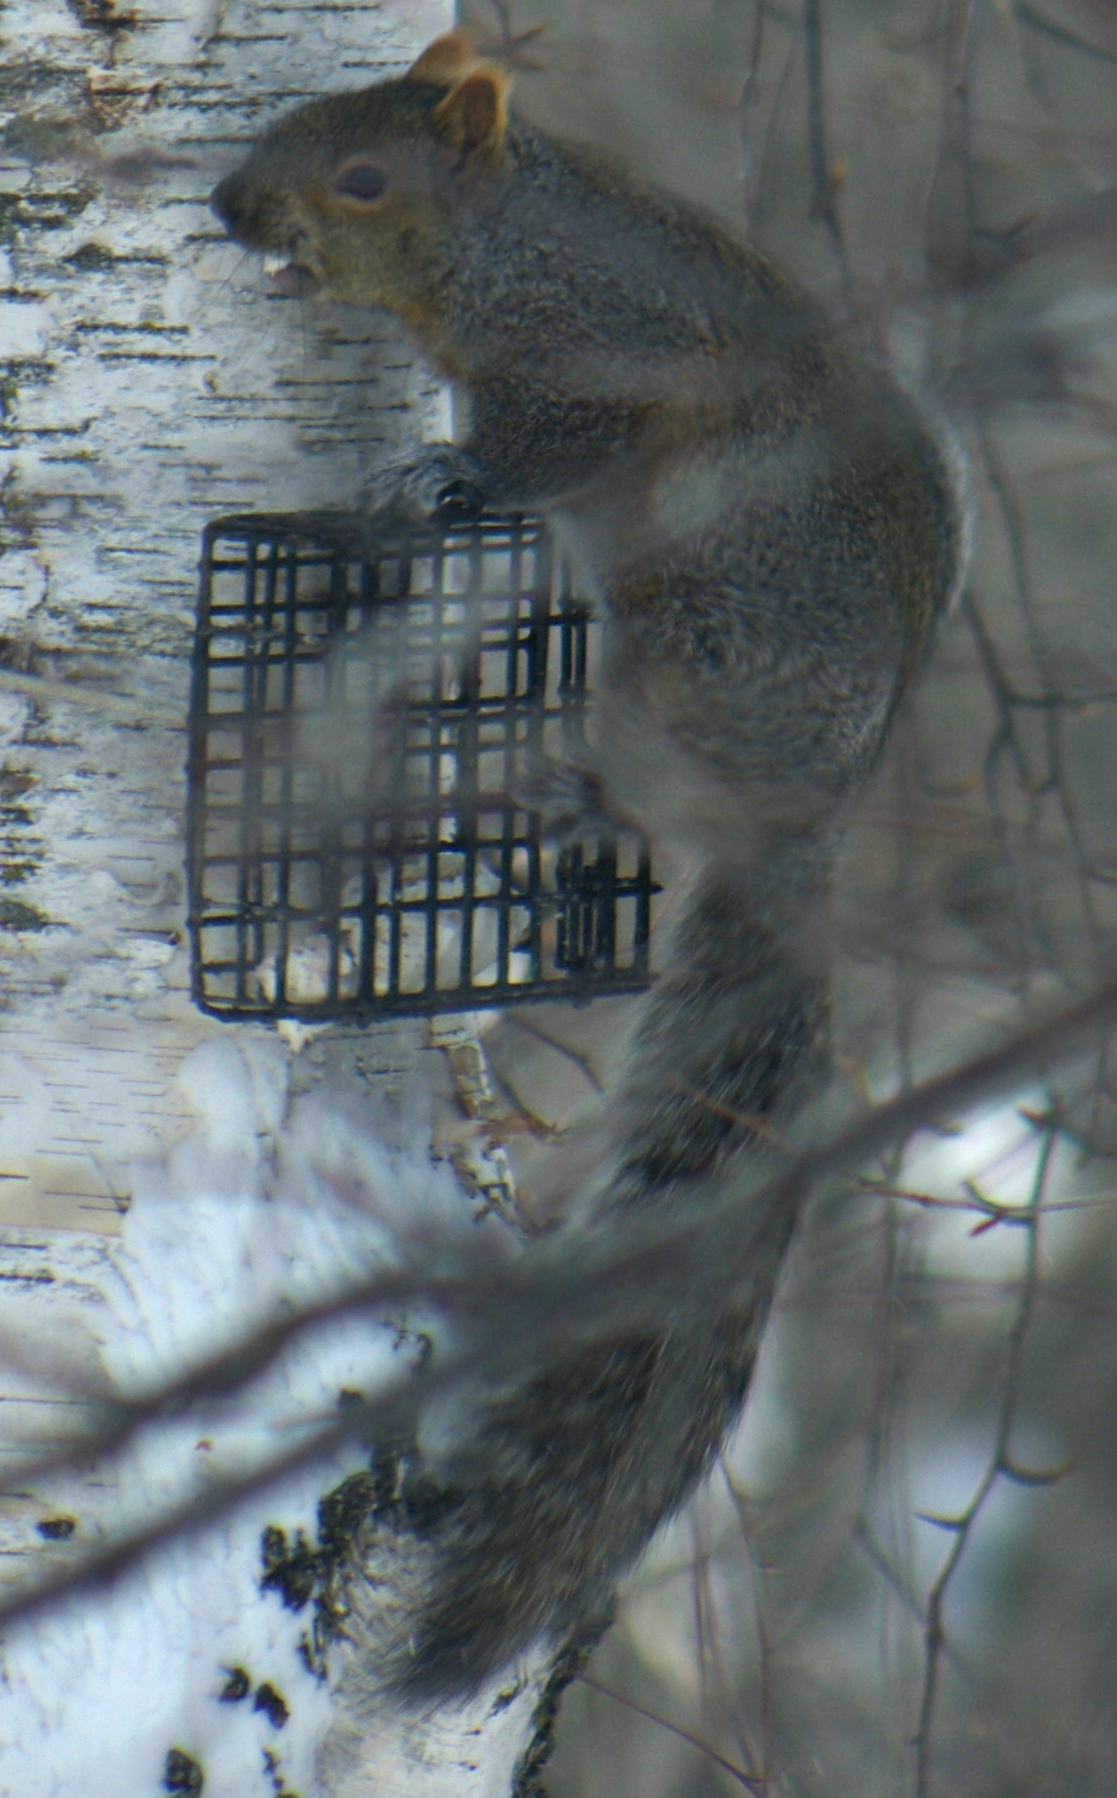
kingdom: Animalia
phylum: Chordata
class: Mammalia
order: Rodentia
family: Sciuridae
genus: Sciurus
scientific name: Sciurus carolinensis
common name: Eastern gray squirrel
